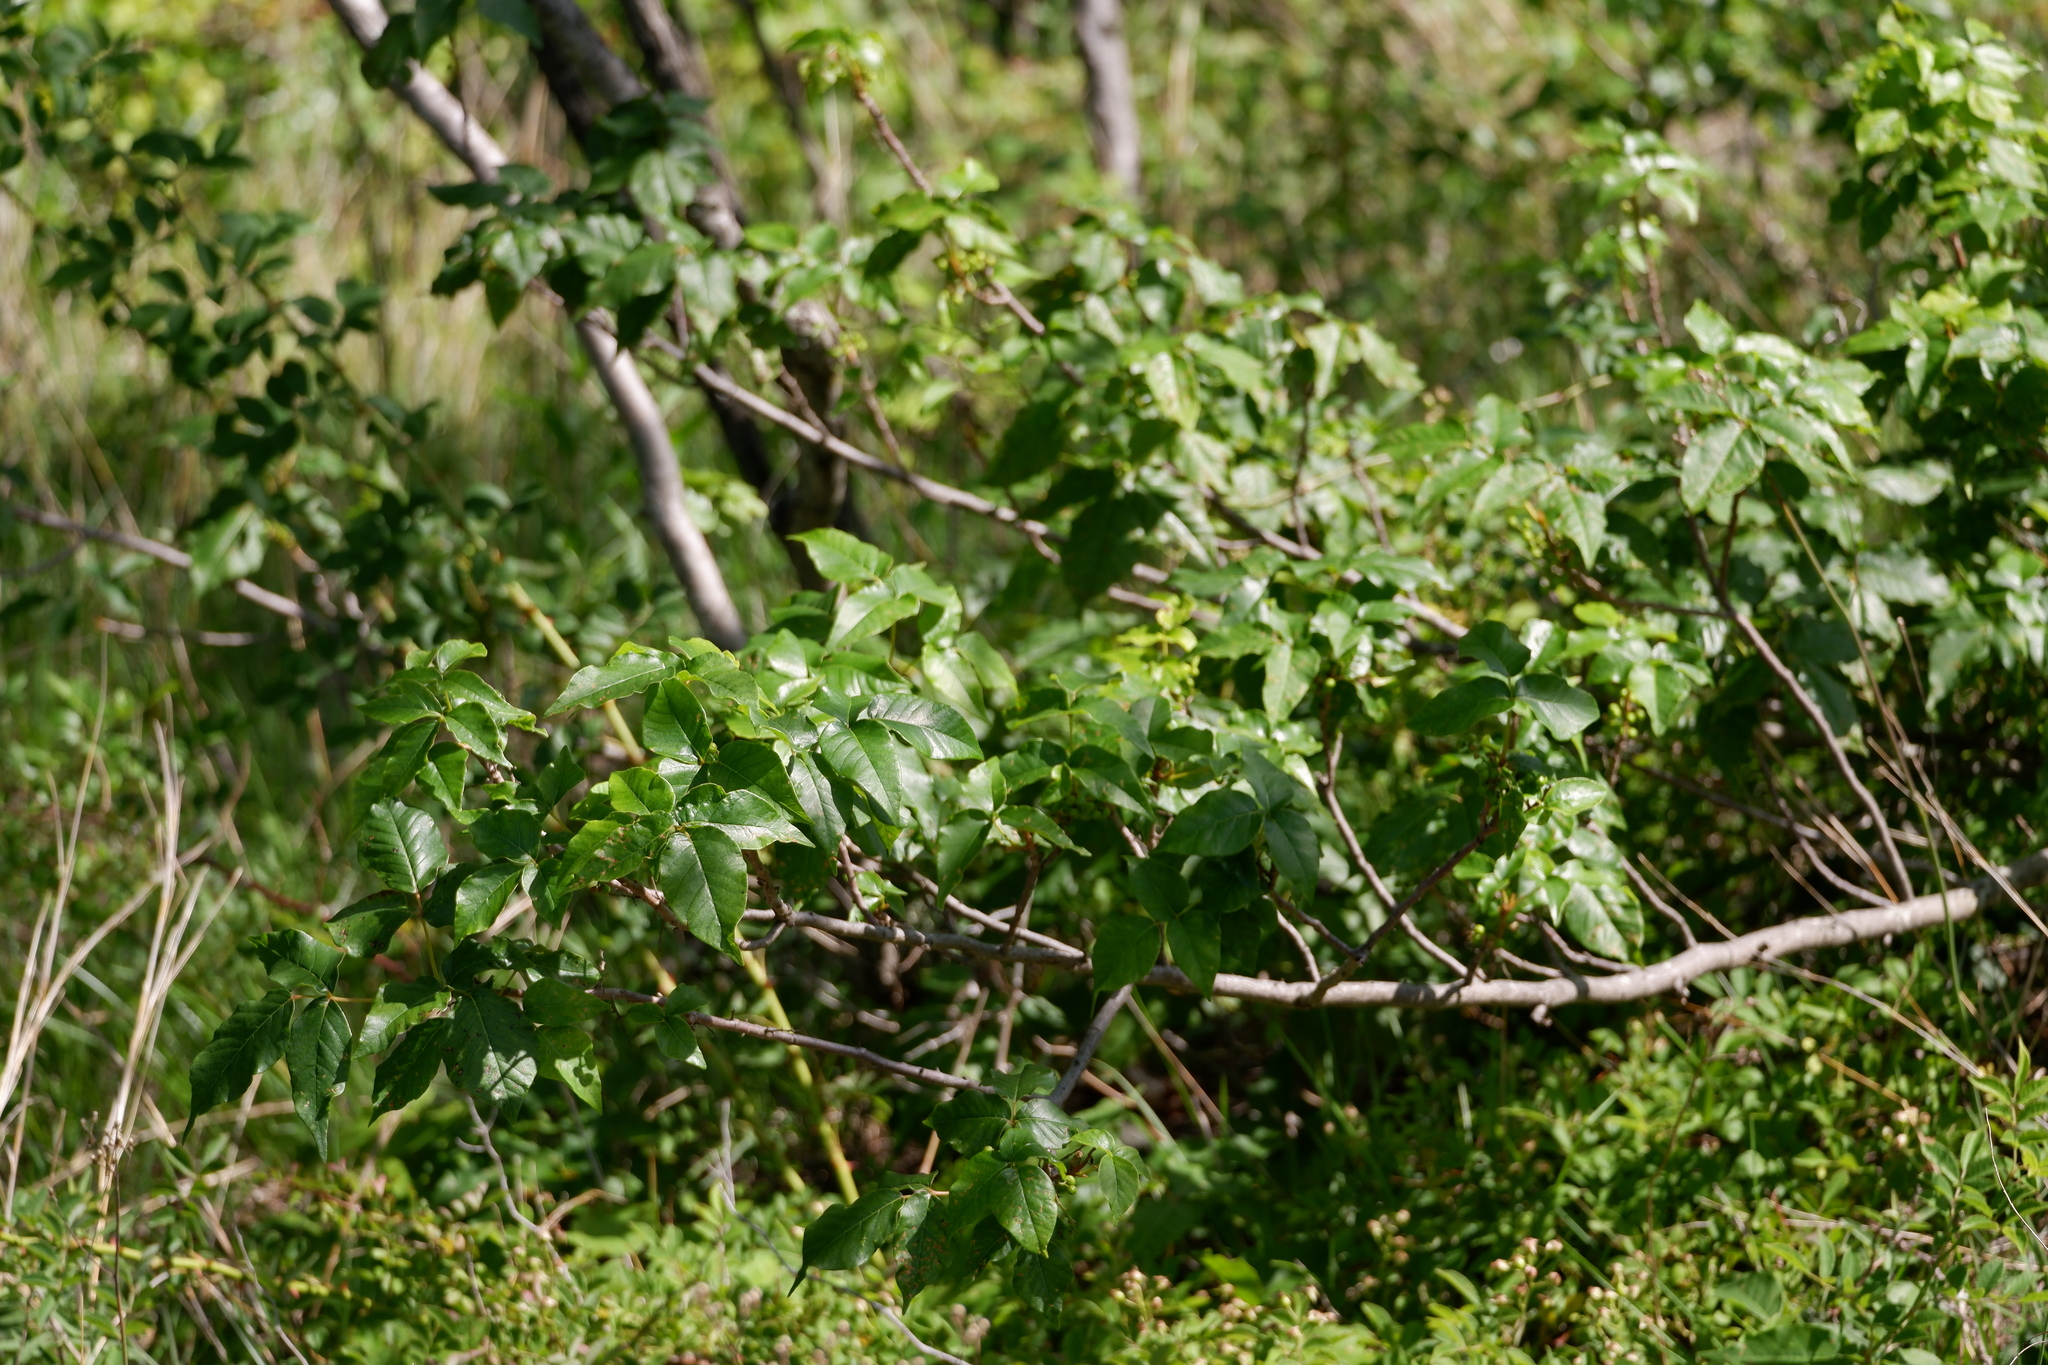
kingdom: Plantae
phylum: Tracheophyta
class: Magnoliopsida
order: Sapindales
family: Anacardiaceae
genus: Toxicodendron
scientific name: Toxicodendron radicans
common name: Poison ivy
